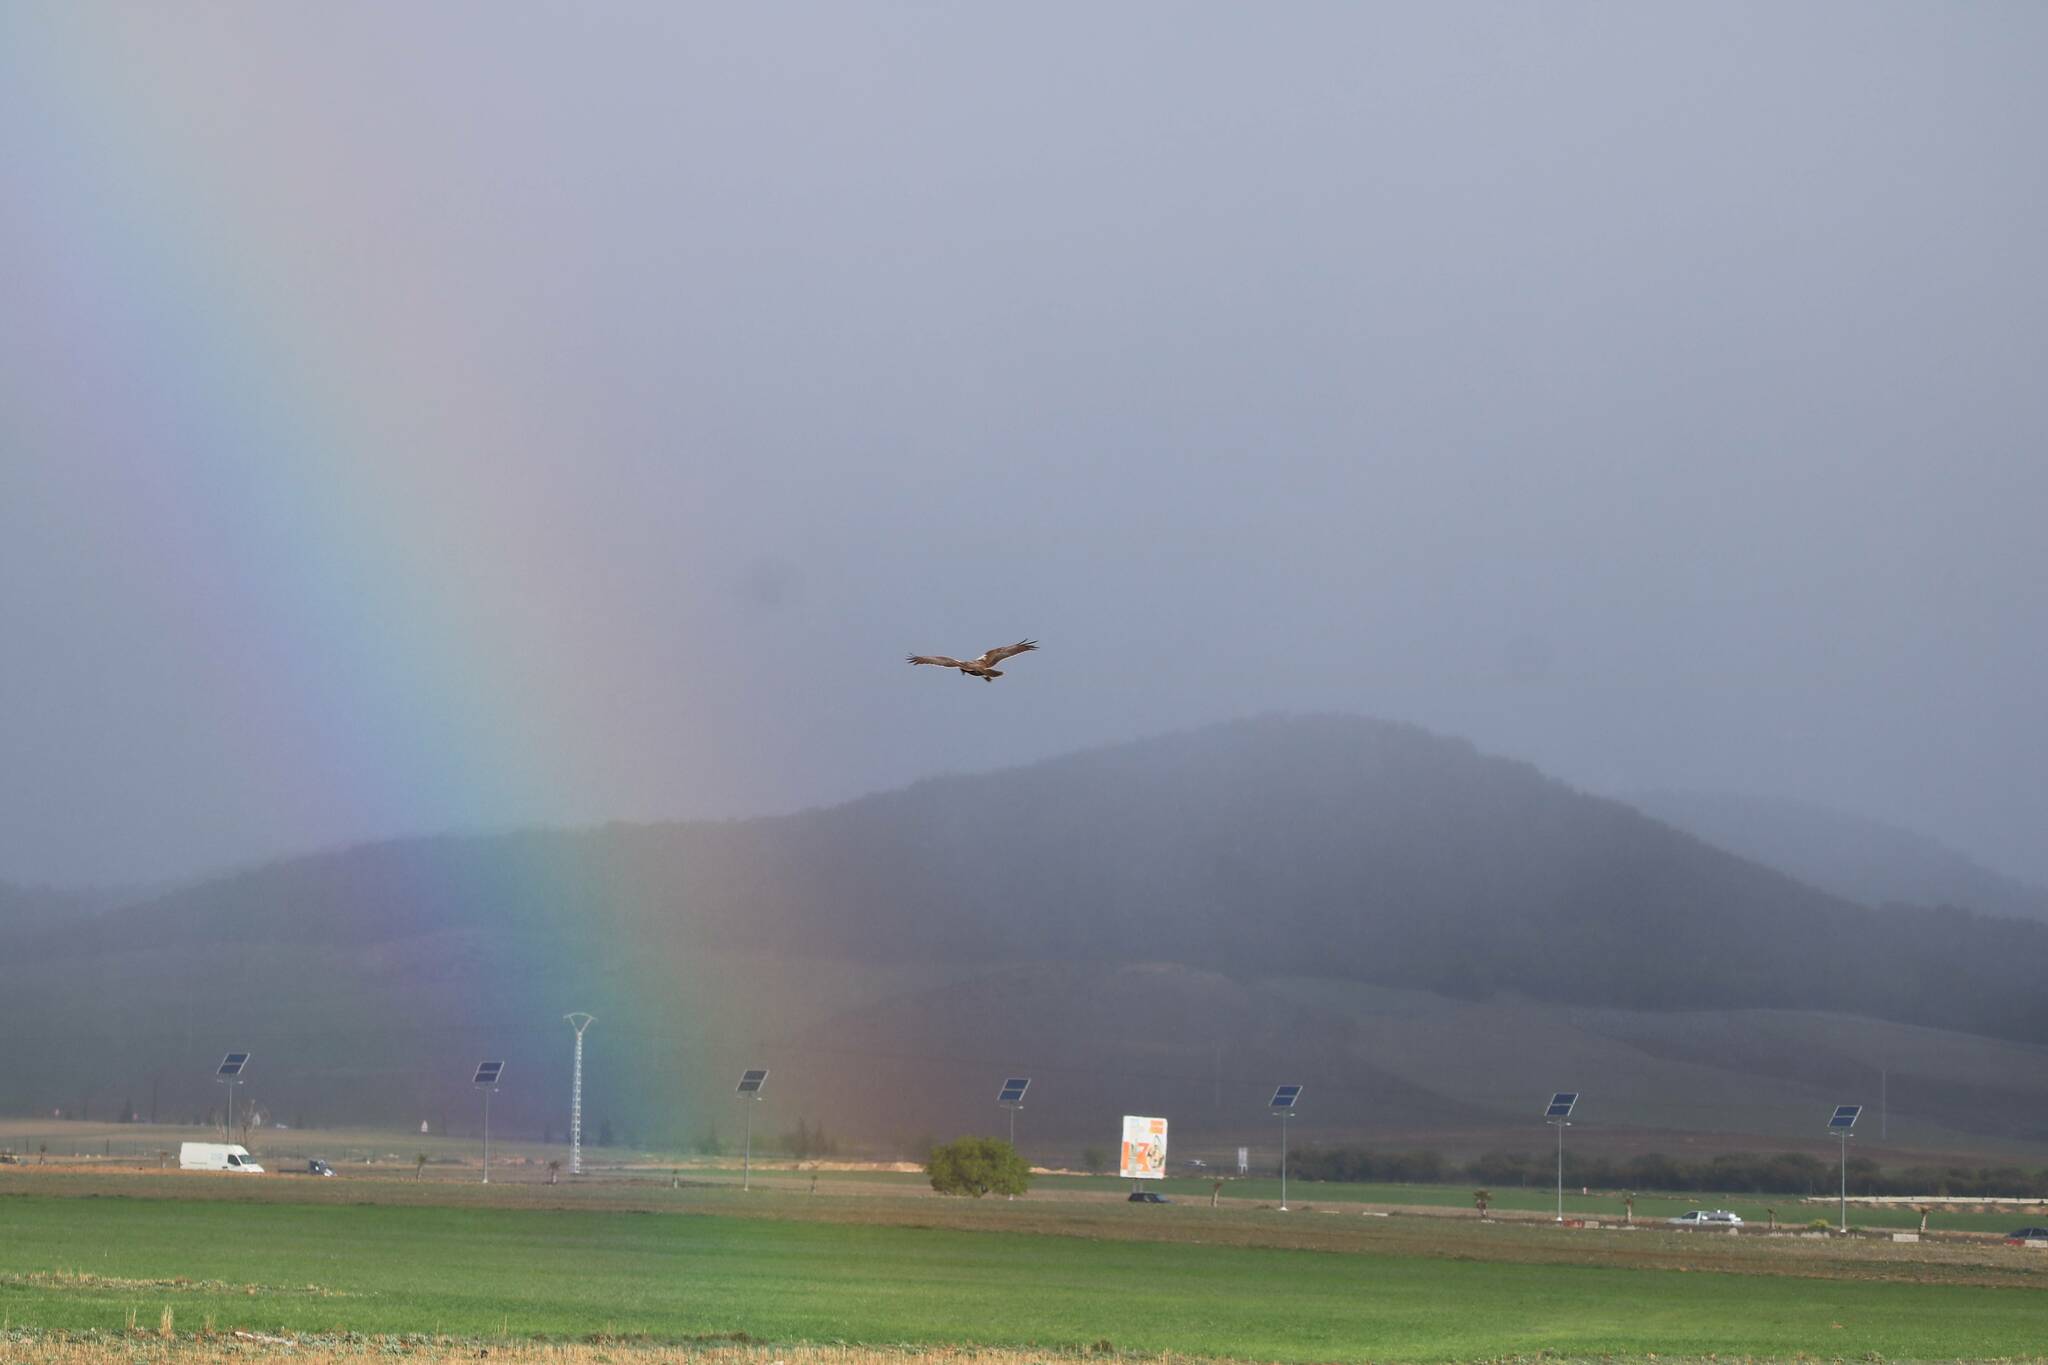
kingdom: Animalia
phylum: Chordata
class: Aves
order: Accipitriformes
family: Accipitridae
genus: Circus
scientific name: Circus aeruginosus
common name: Western marsh harrier
